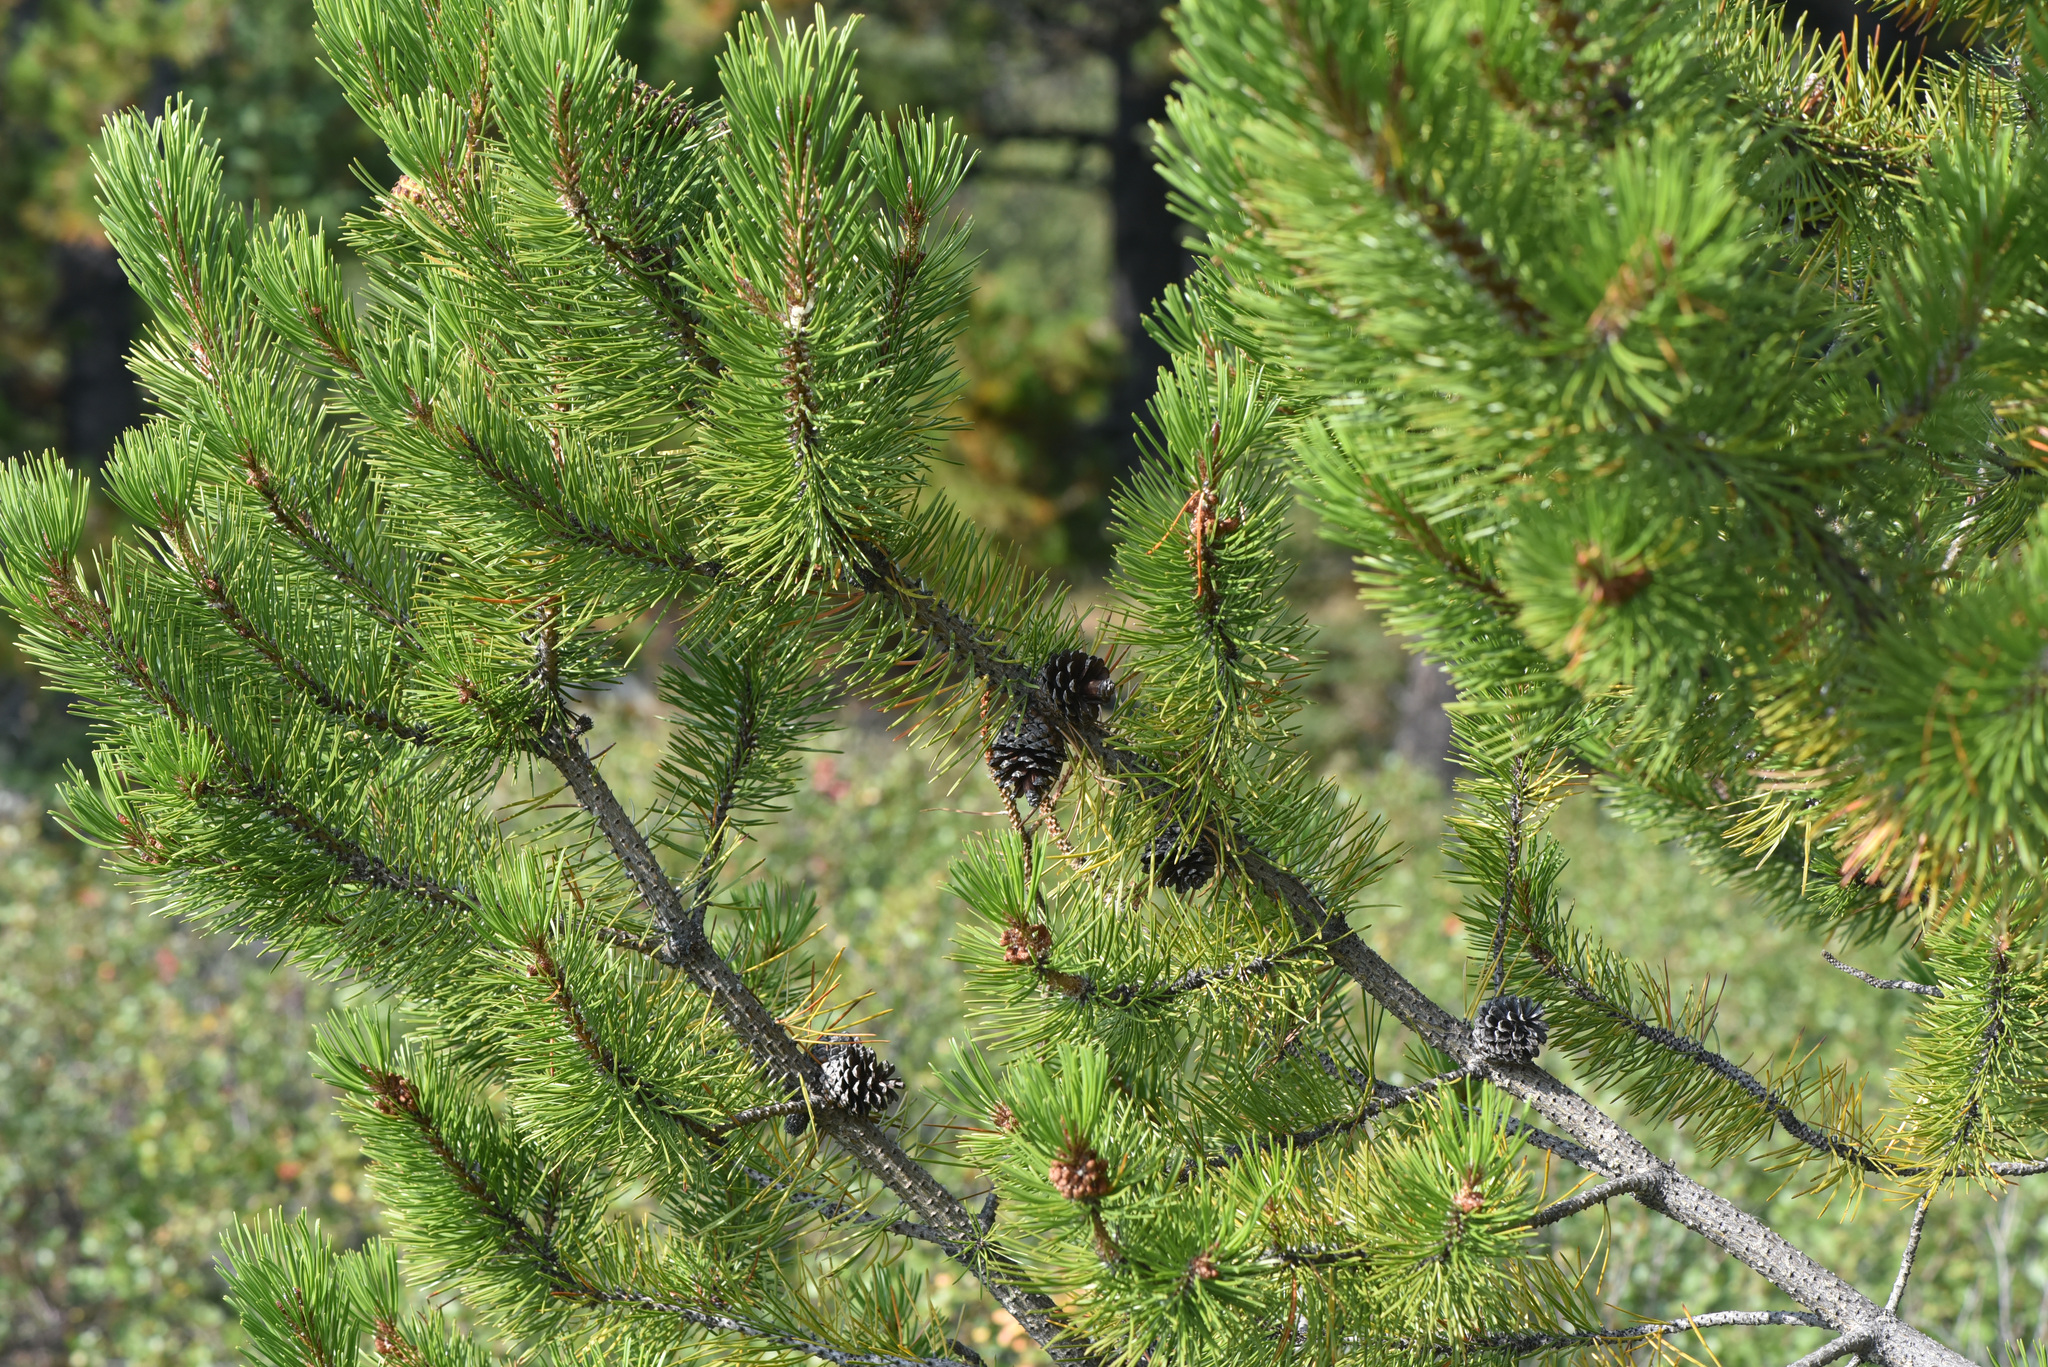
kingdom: Plantae
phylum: Tracheophyta
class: Pinopsida
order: Pinales
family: Pinaceae
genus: Pinus
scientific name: Pinus contorta
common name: Lodgepole pine
